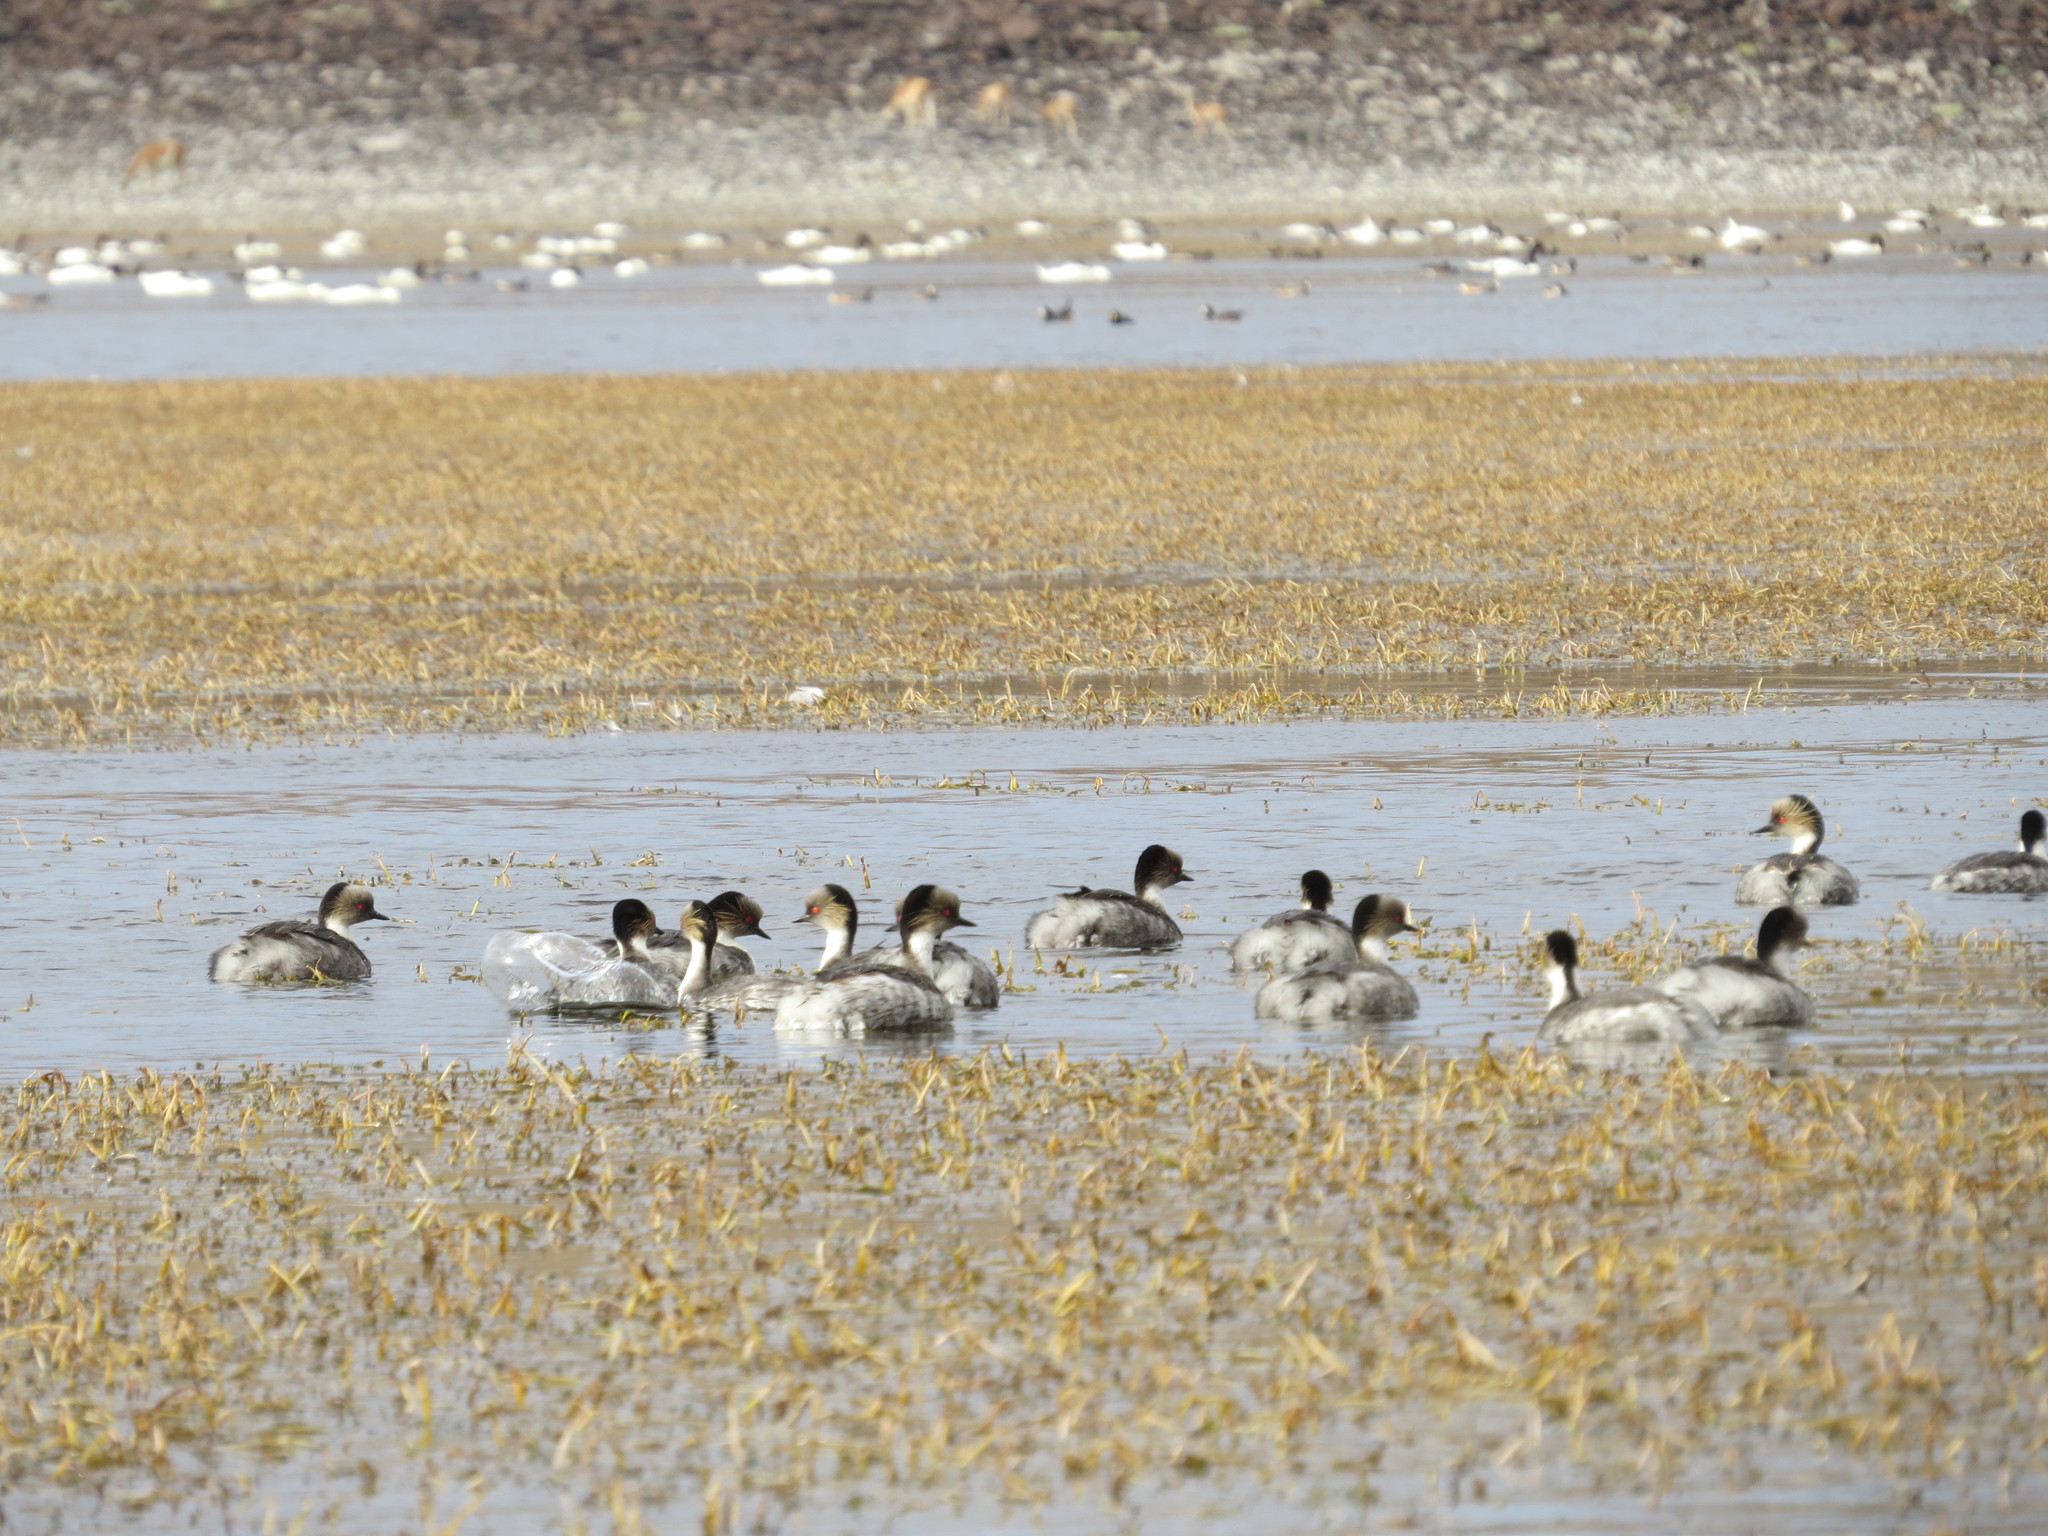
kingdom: Animalia
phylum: Chordata
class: Aves
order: Podicipediformes
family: Podicipedidae
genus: Podiceps
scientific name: Podiceps occipitalis
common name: Silvery grebe
